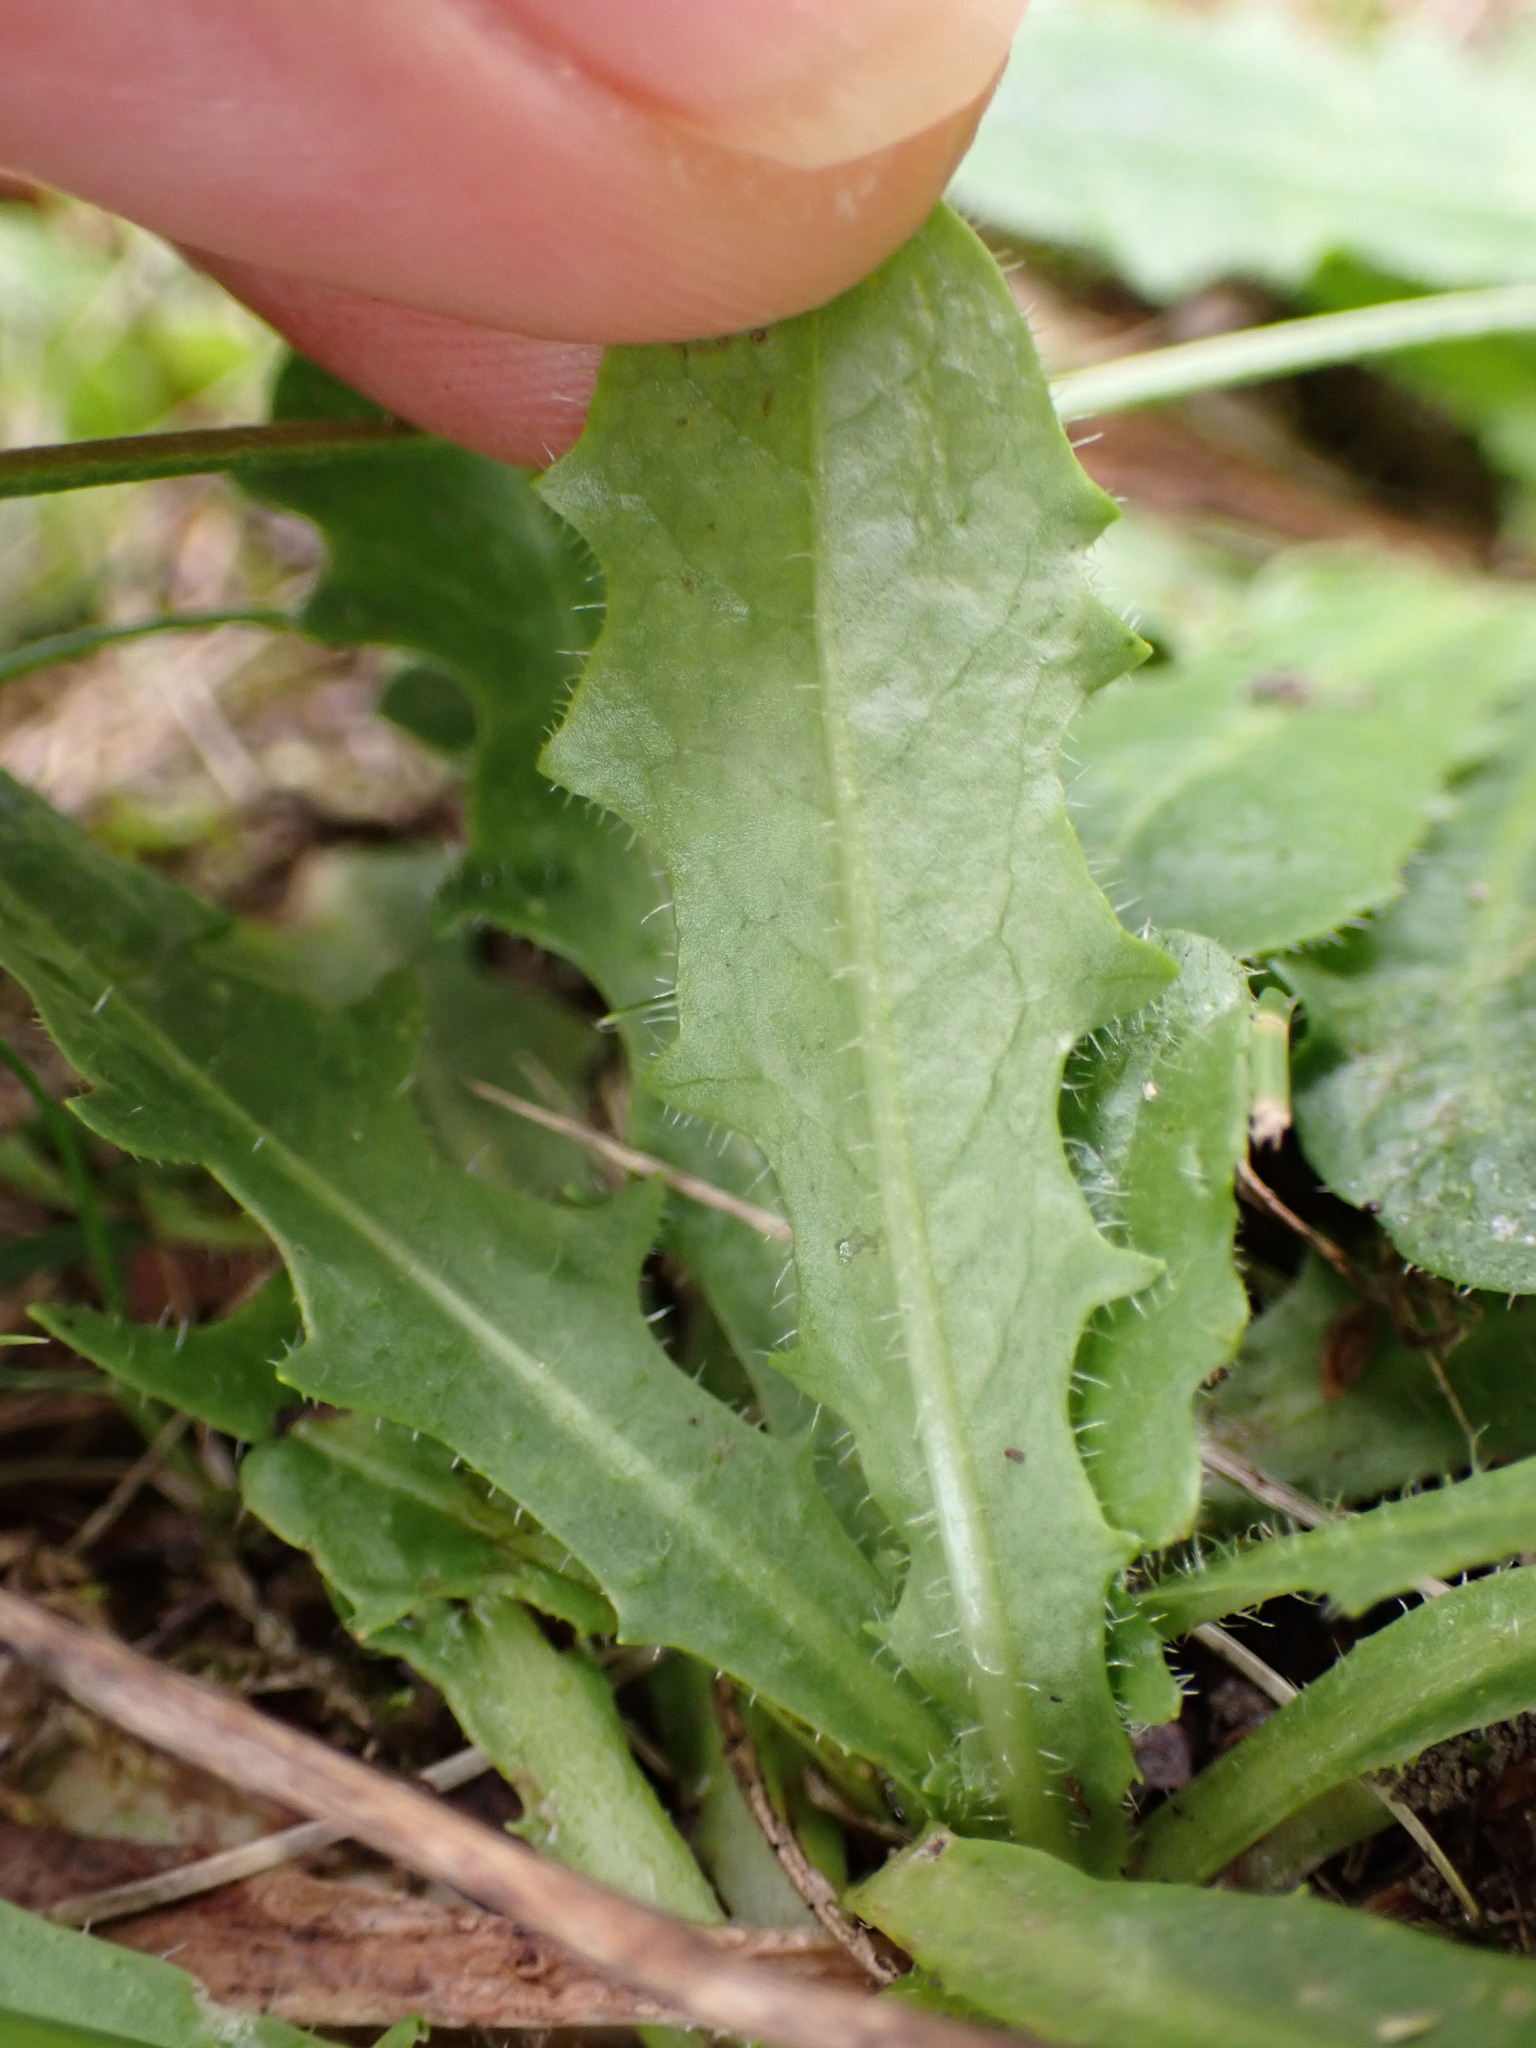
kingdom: Plantae
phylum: Tracheophyta
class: Magnoliopsida
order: Asterales
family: Asteraceae
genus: Hypochaeris
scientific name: Hypochaeris radicata
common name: Flatweed
